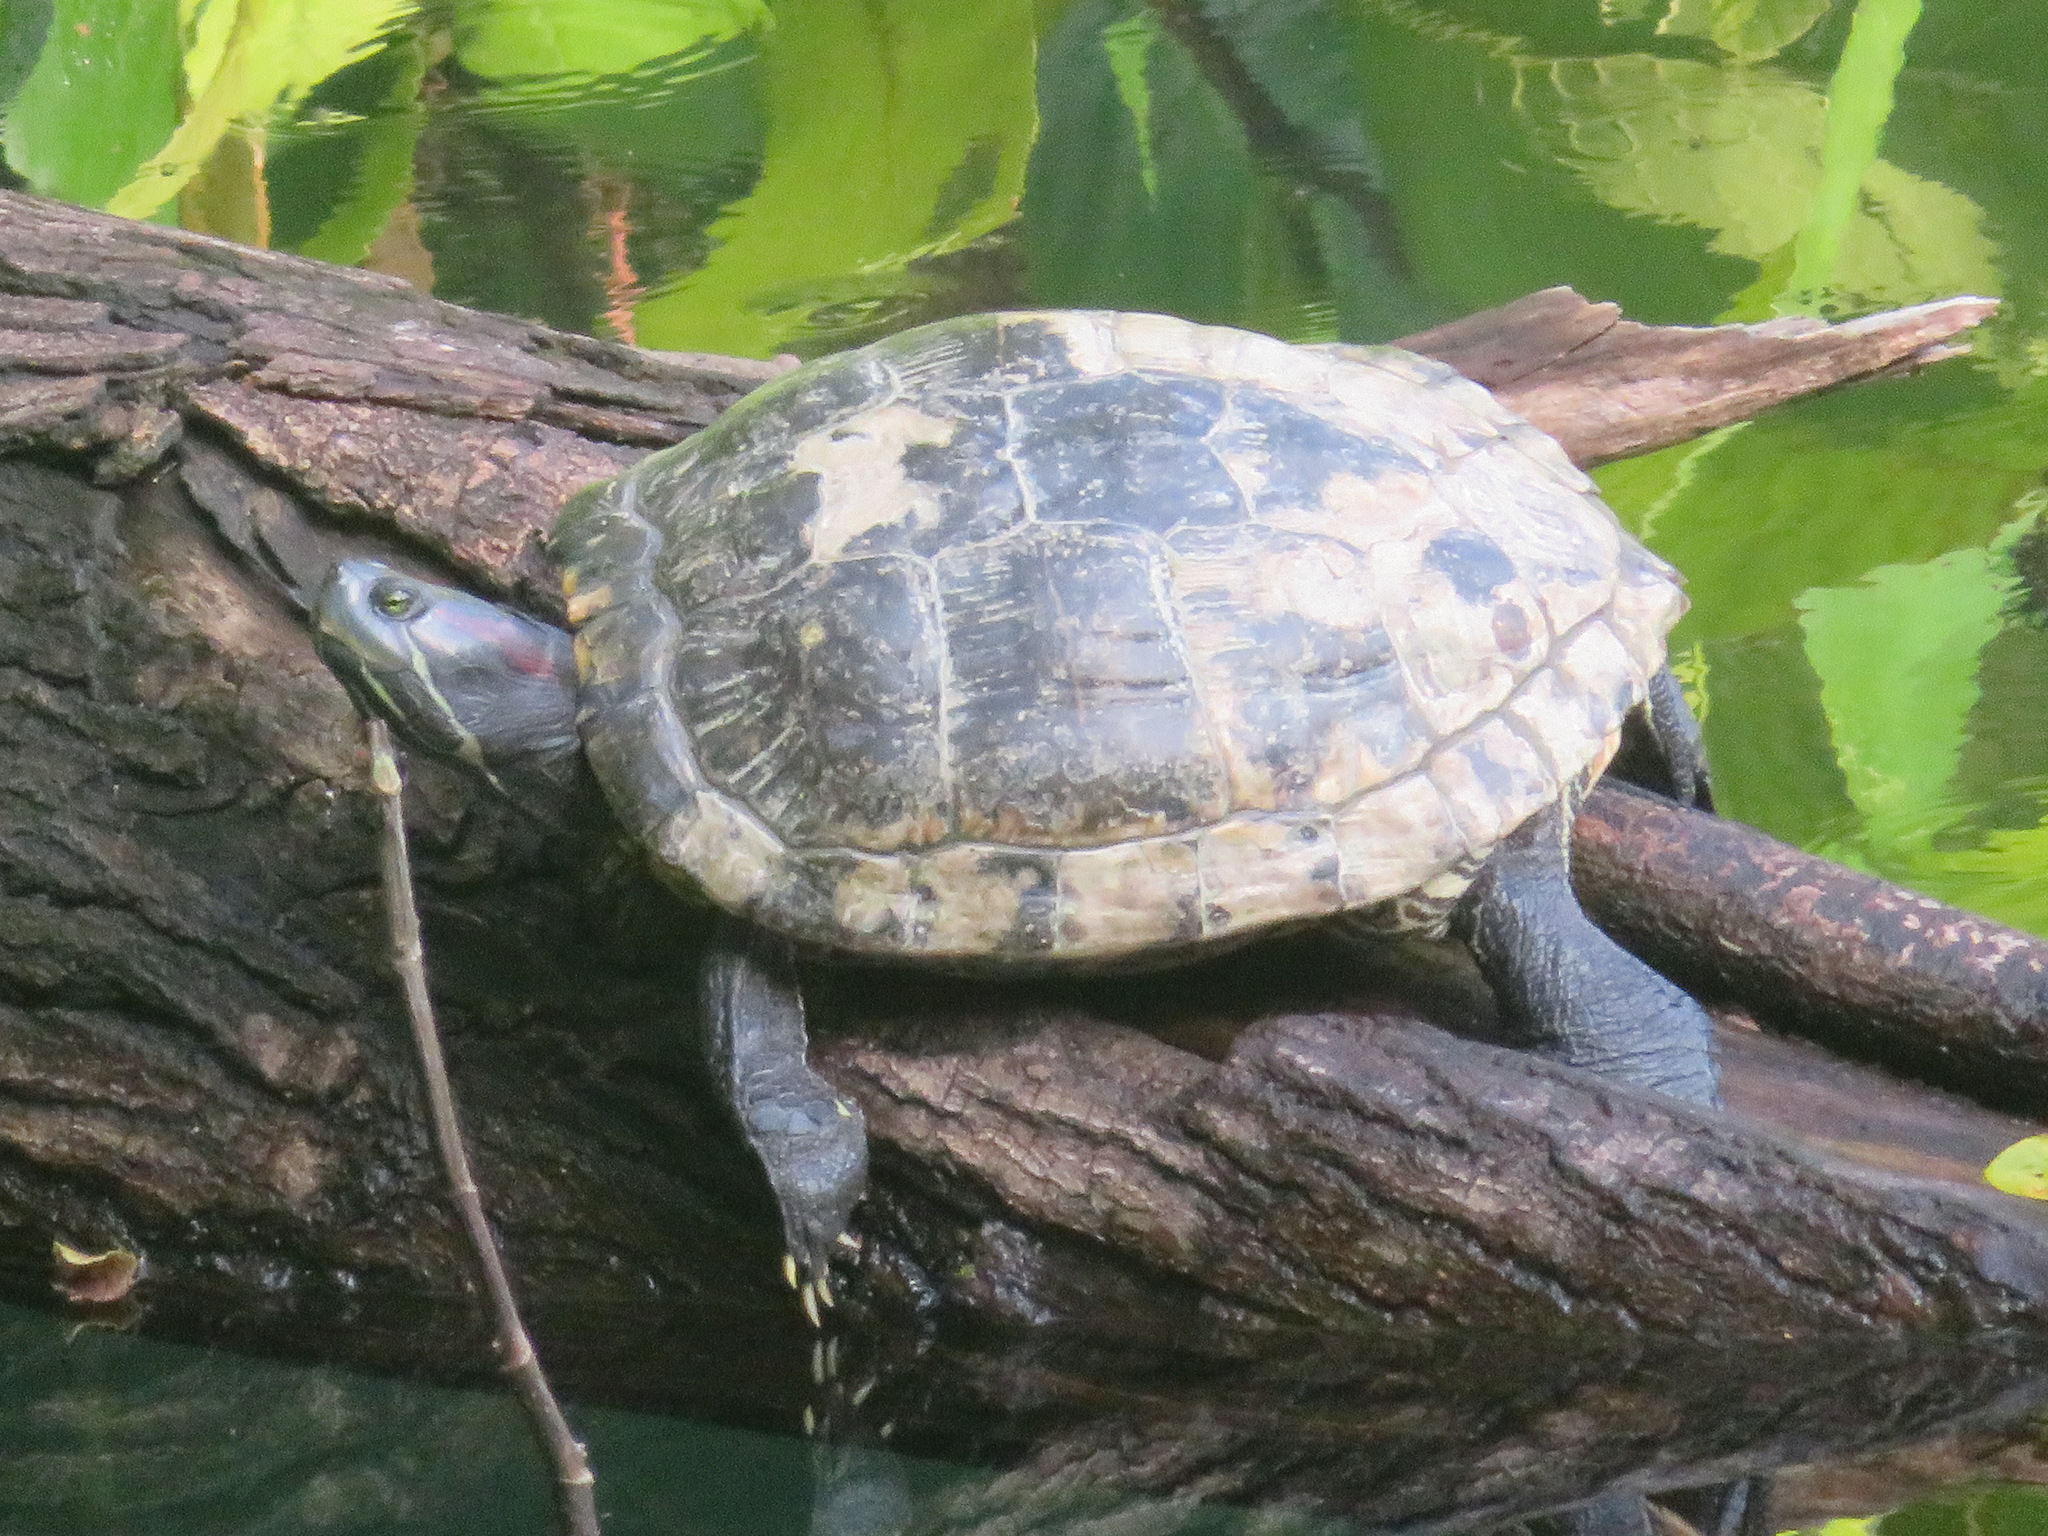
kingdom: Animalia
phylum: Chordata
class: Testudines
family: Emydidae
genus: Trachemys
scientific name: Trachemys scripta
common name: Slider
